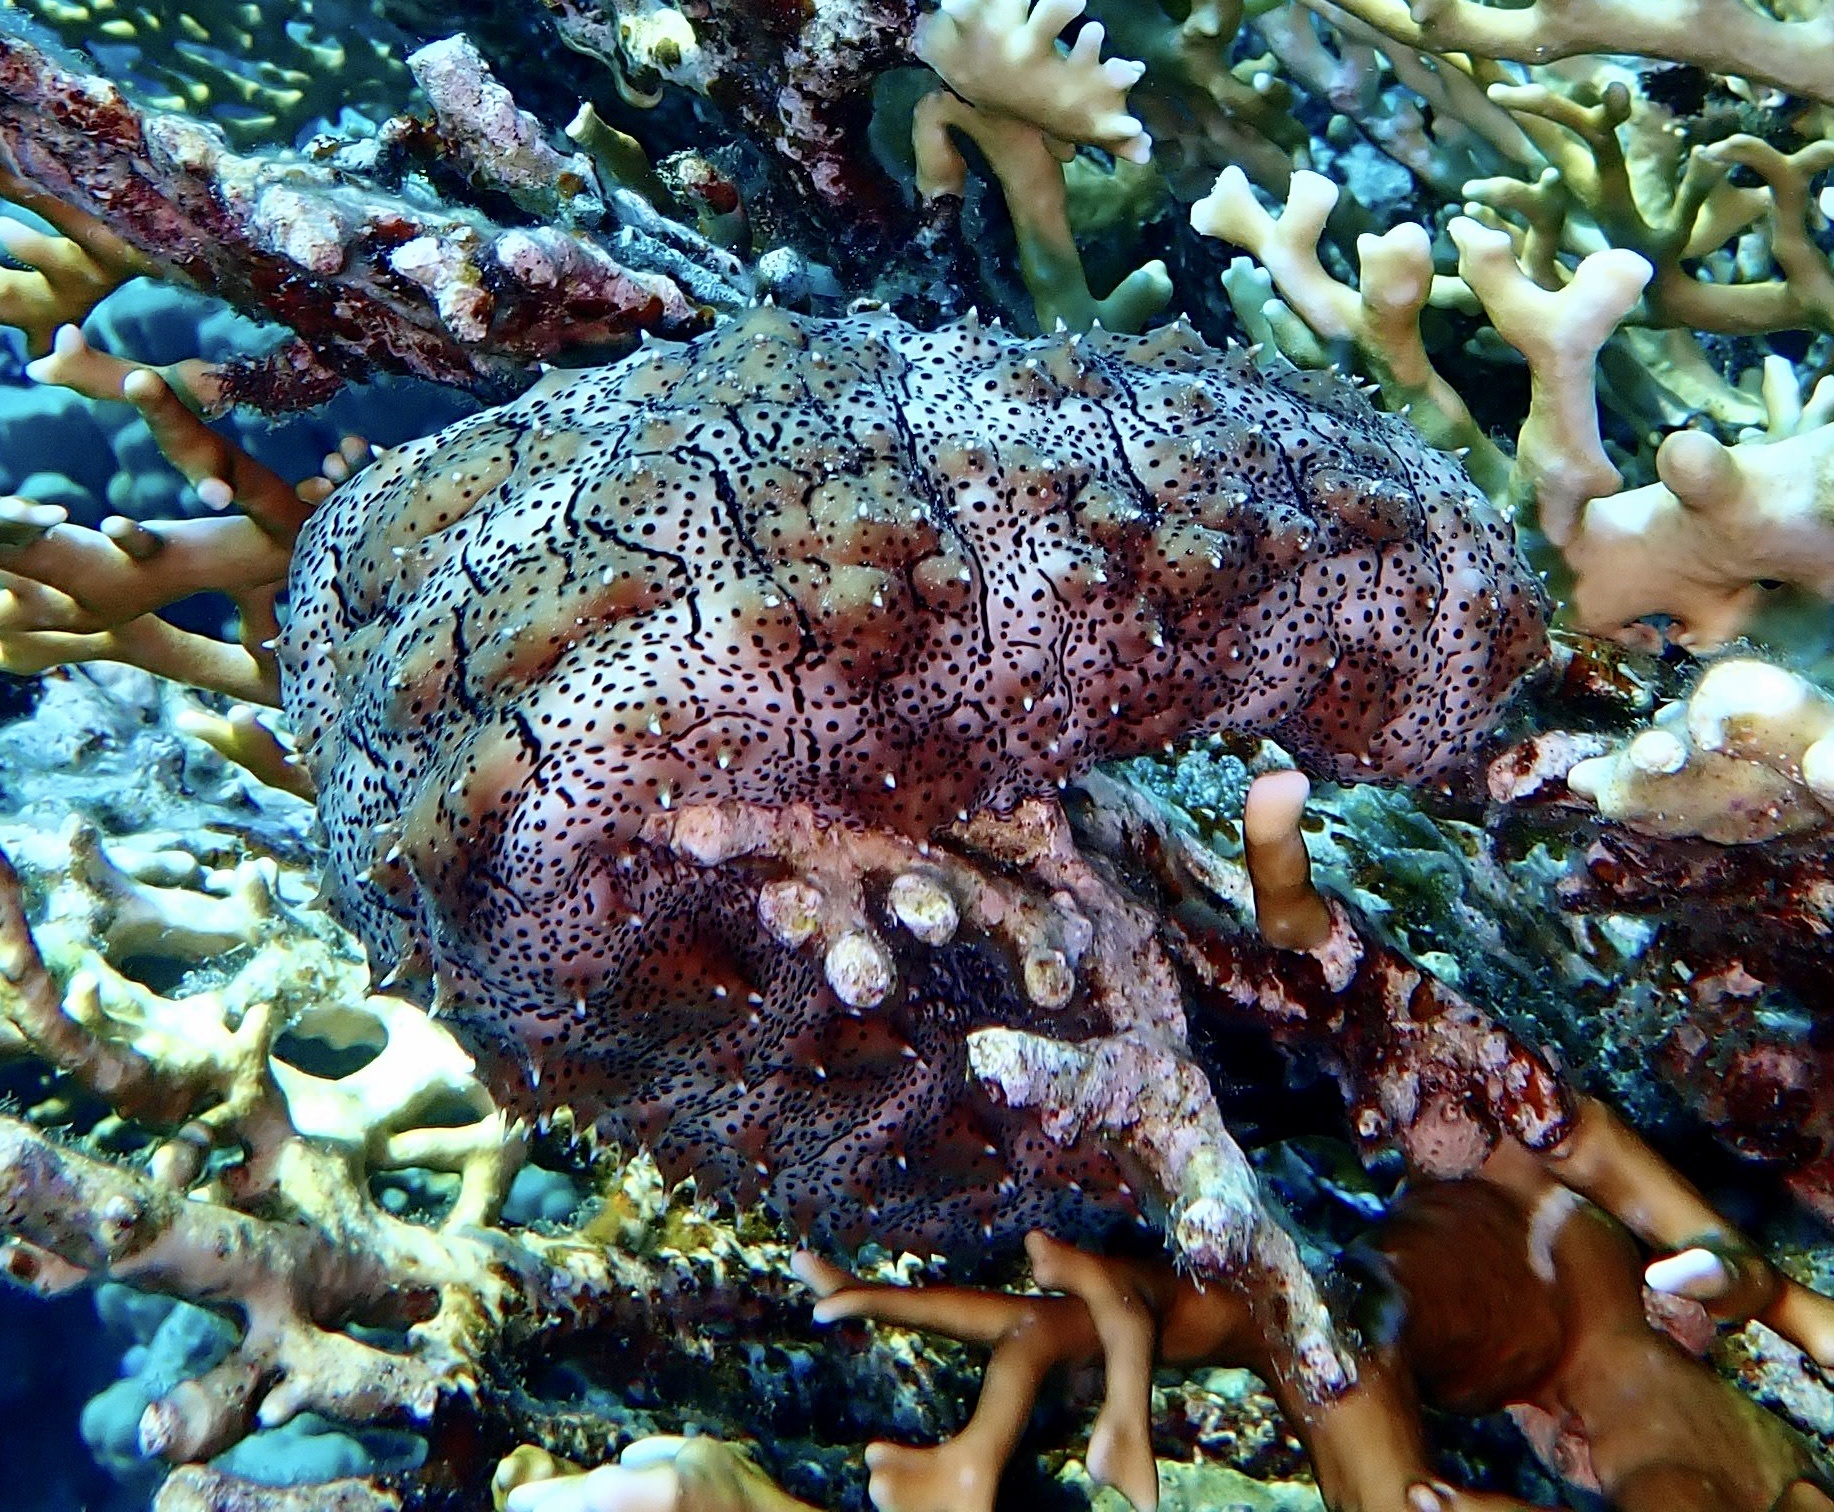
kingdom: Animalia
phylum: Echinodermata
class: Holothuroidea
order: Holothuriida
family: Holothuriidae
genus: Pearsonothuria
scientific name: Pearsonothuria graeffei
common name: Blackspotted sea cucumber
